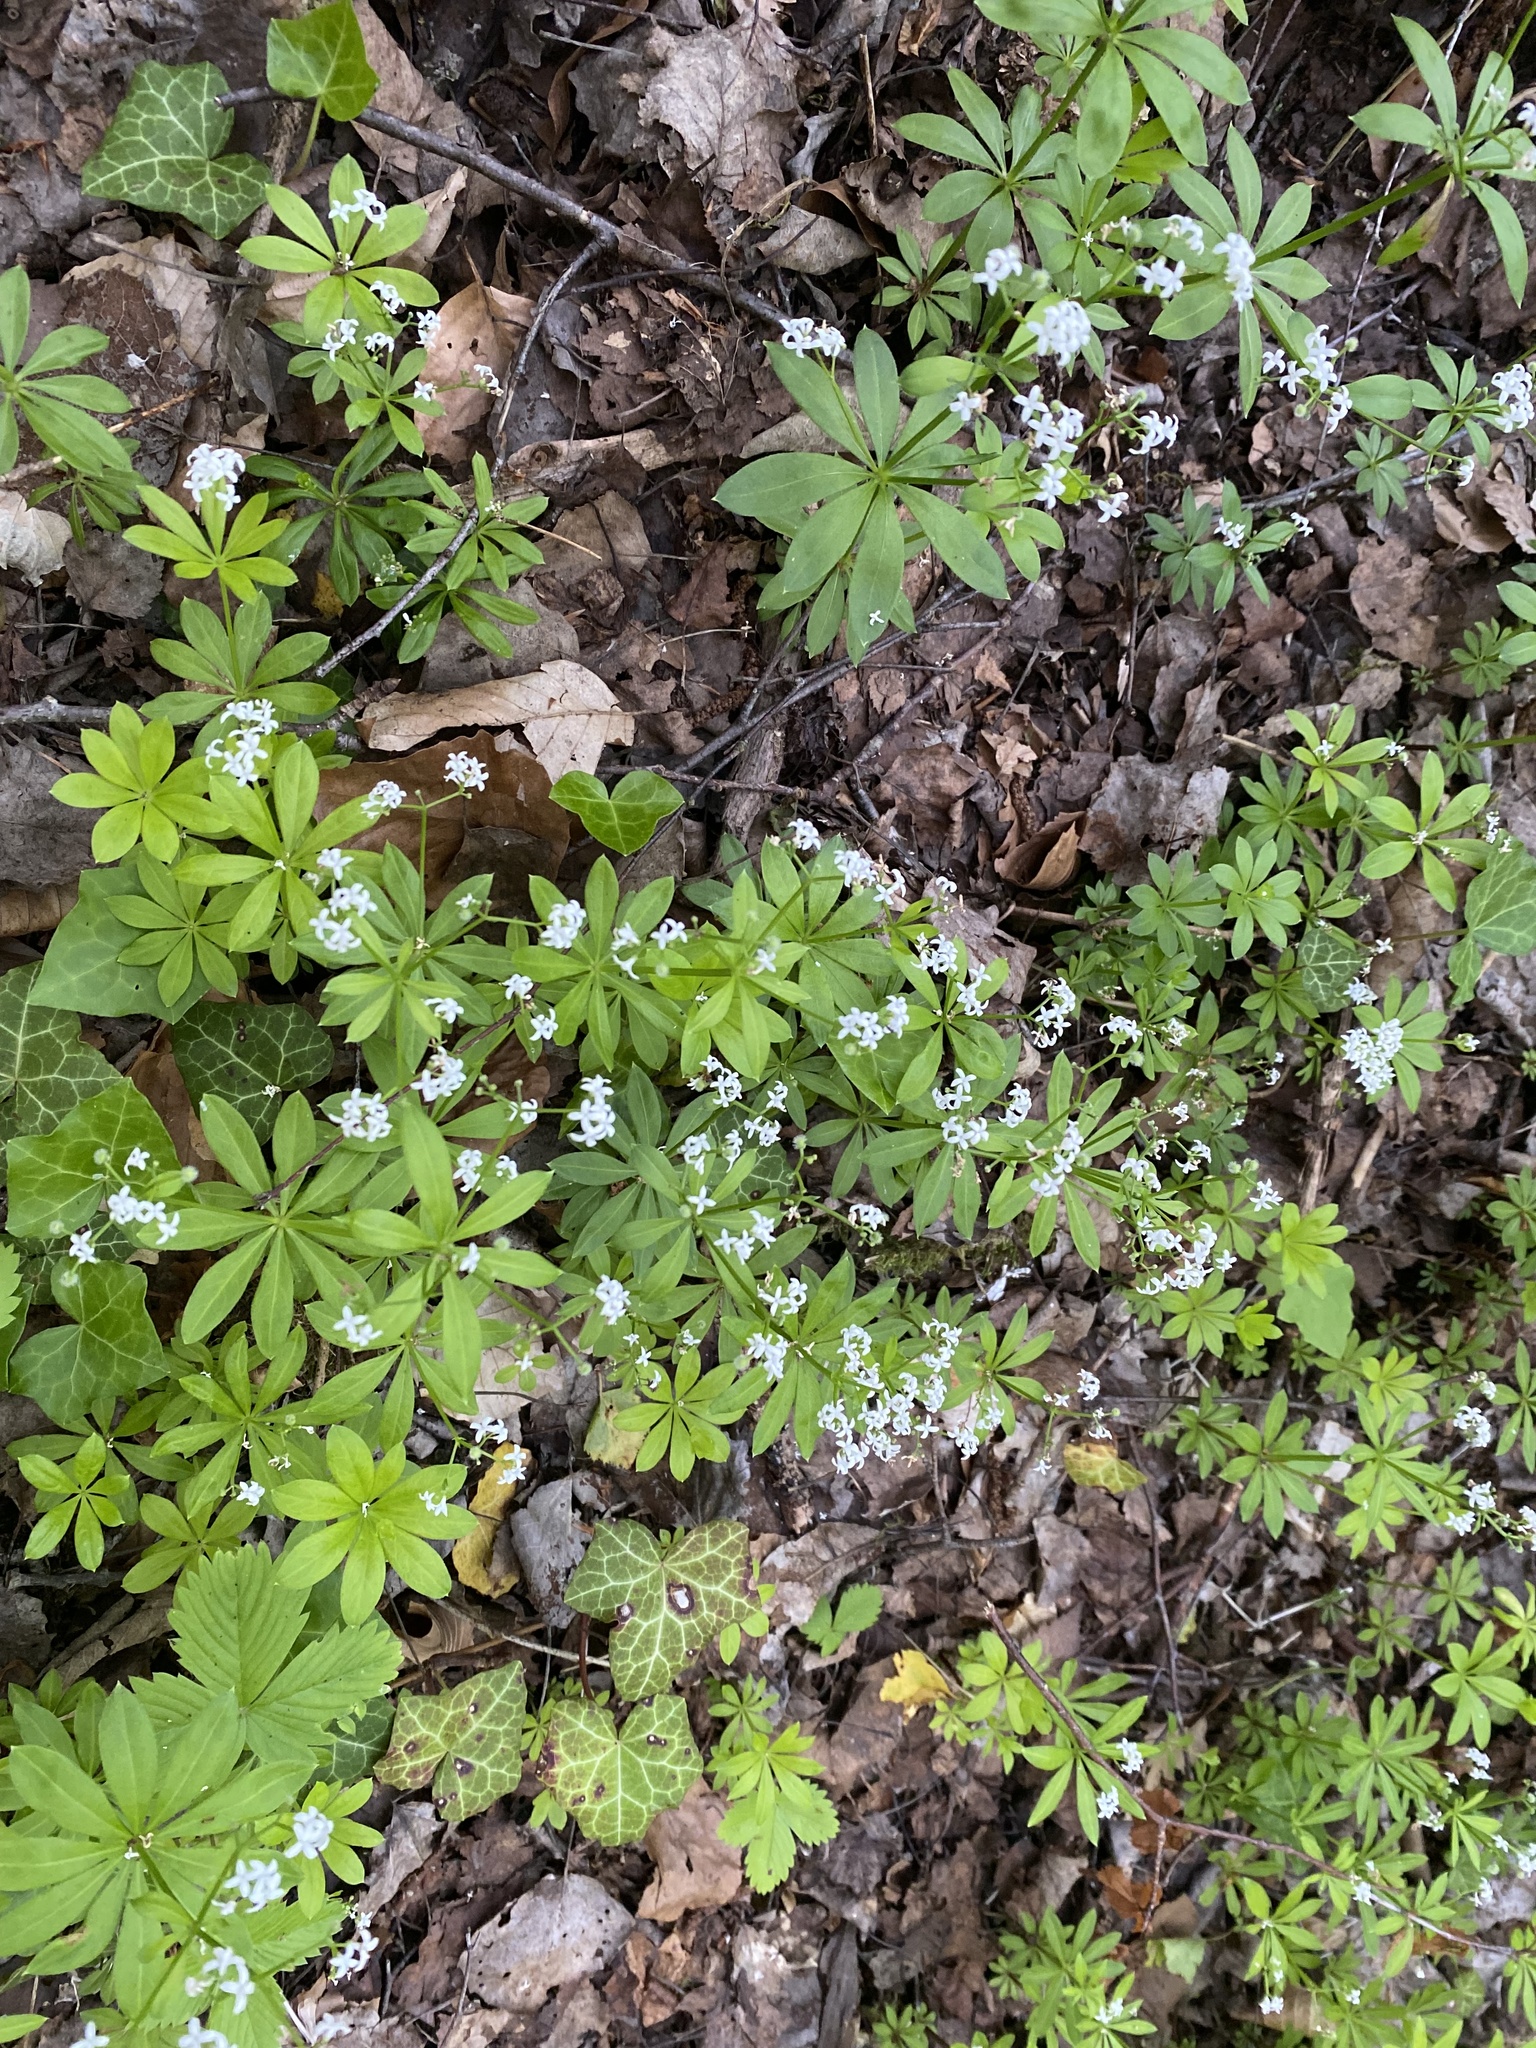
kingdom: Plantae
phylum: Tracheophyta
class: Magnoliopsida
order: Gentianales
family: Rubiaceae
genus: Galium
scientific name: Galium odoratum
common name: Sweet woodruff
